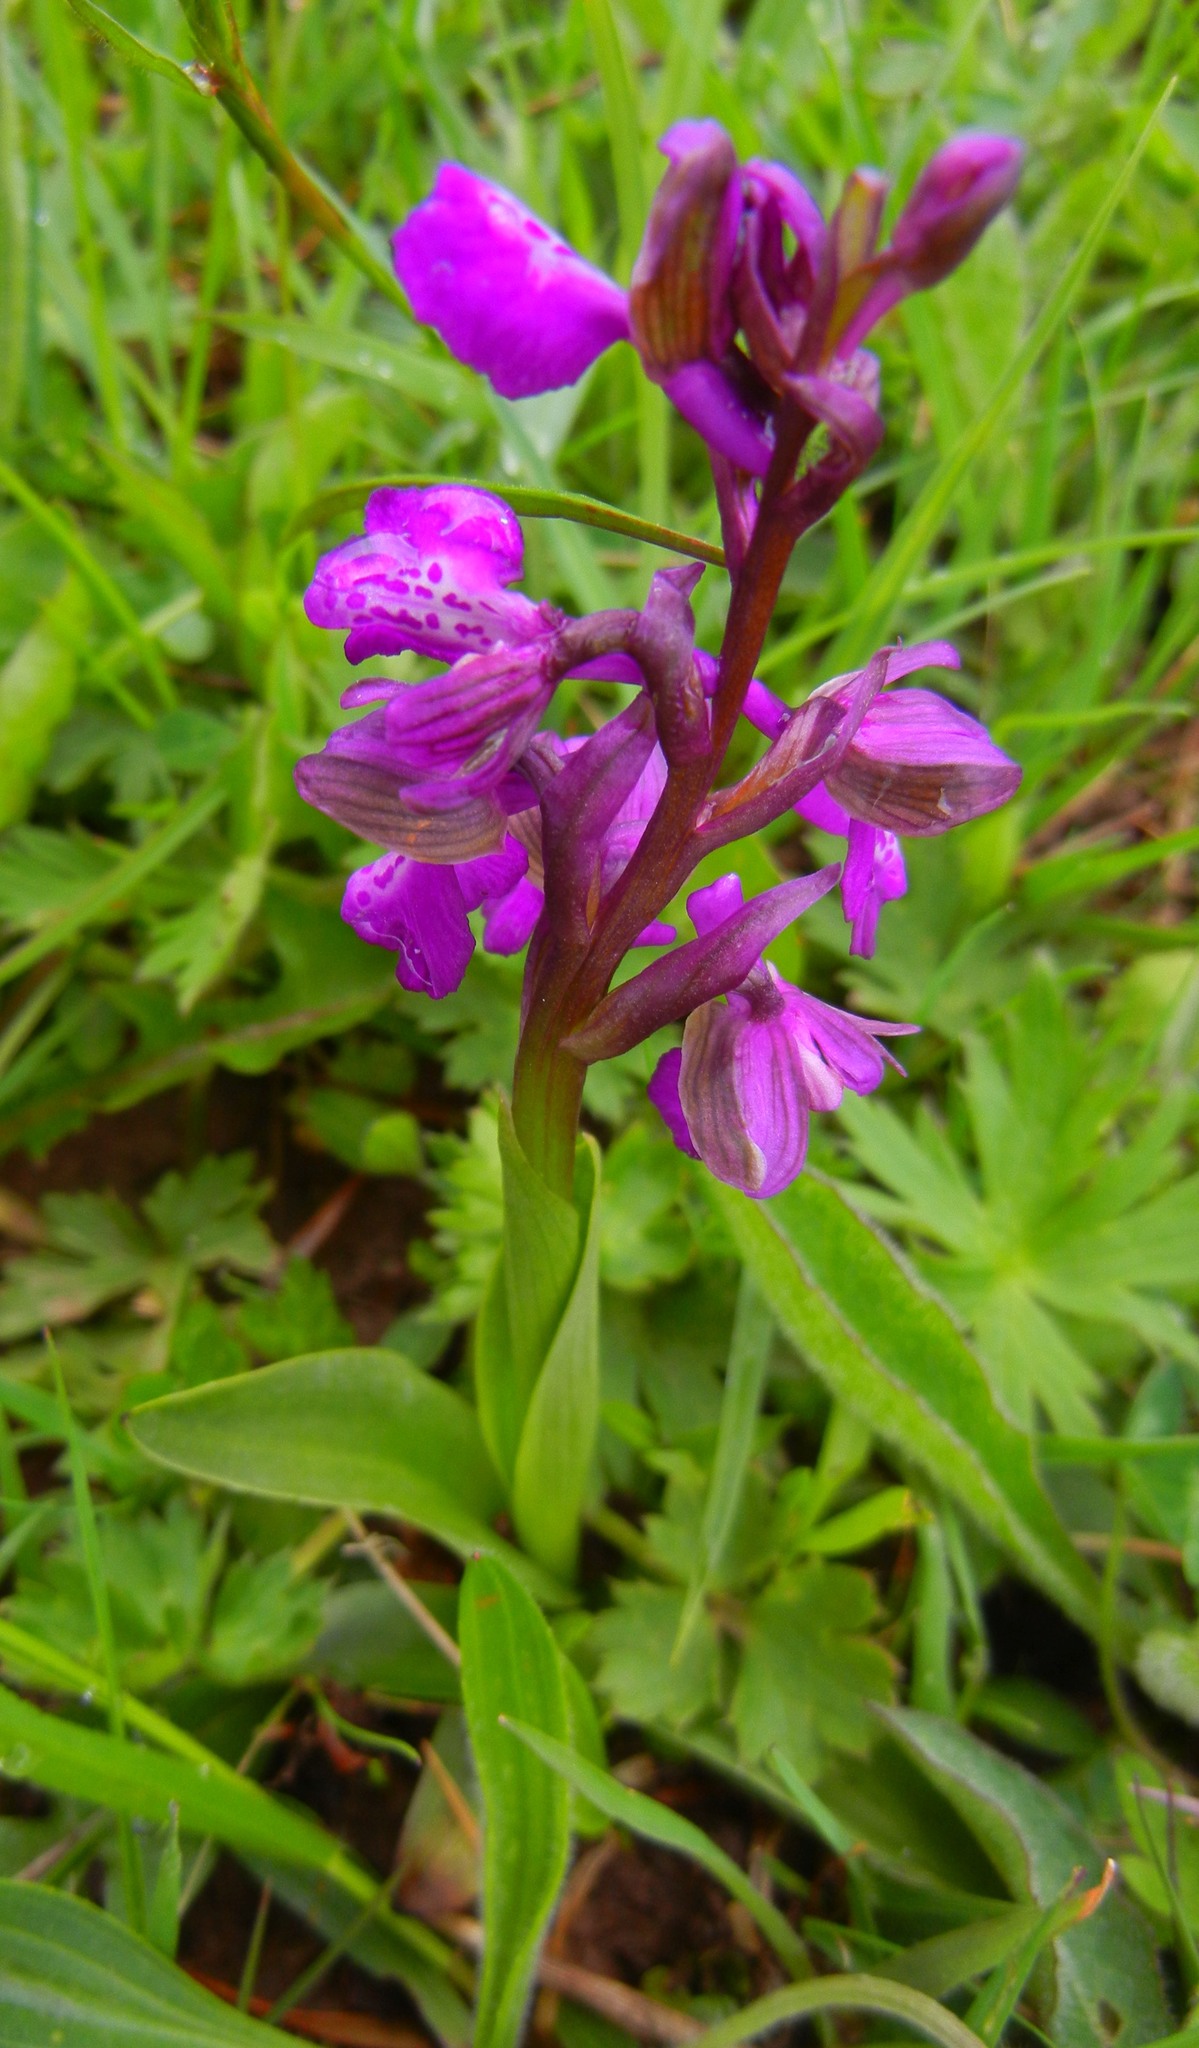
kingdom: Plantae
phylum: Tracheophyta
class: Liliopsida
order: Asparagales
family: Orchidaceae
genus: Anacamptis
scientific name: Anacamptis morio
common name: Green-winged orchid
